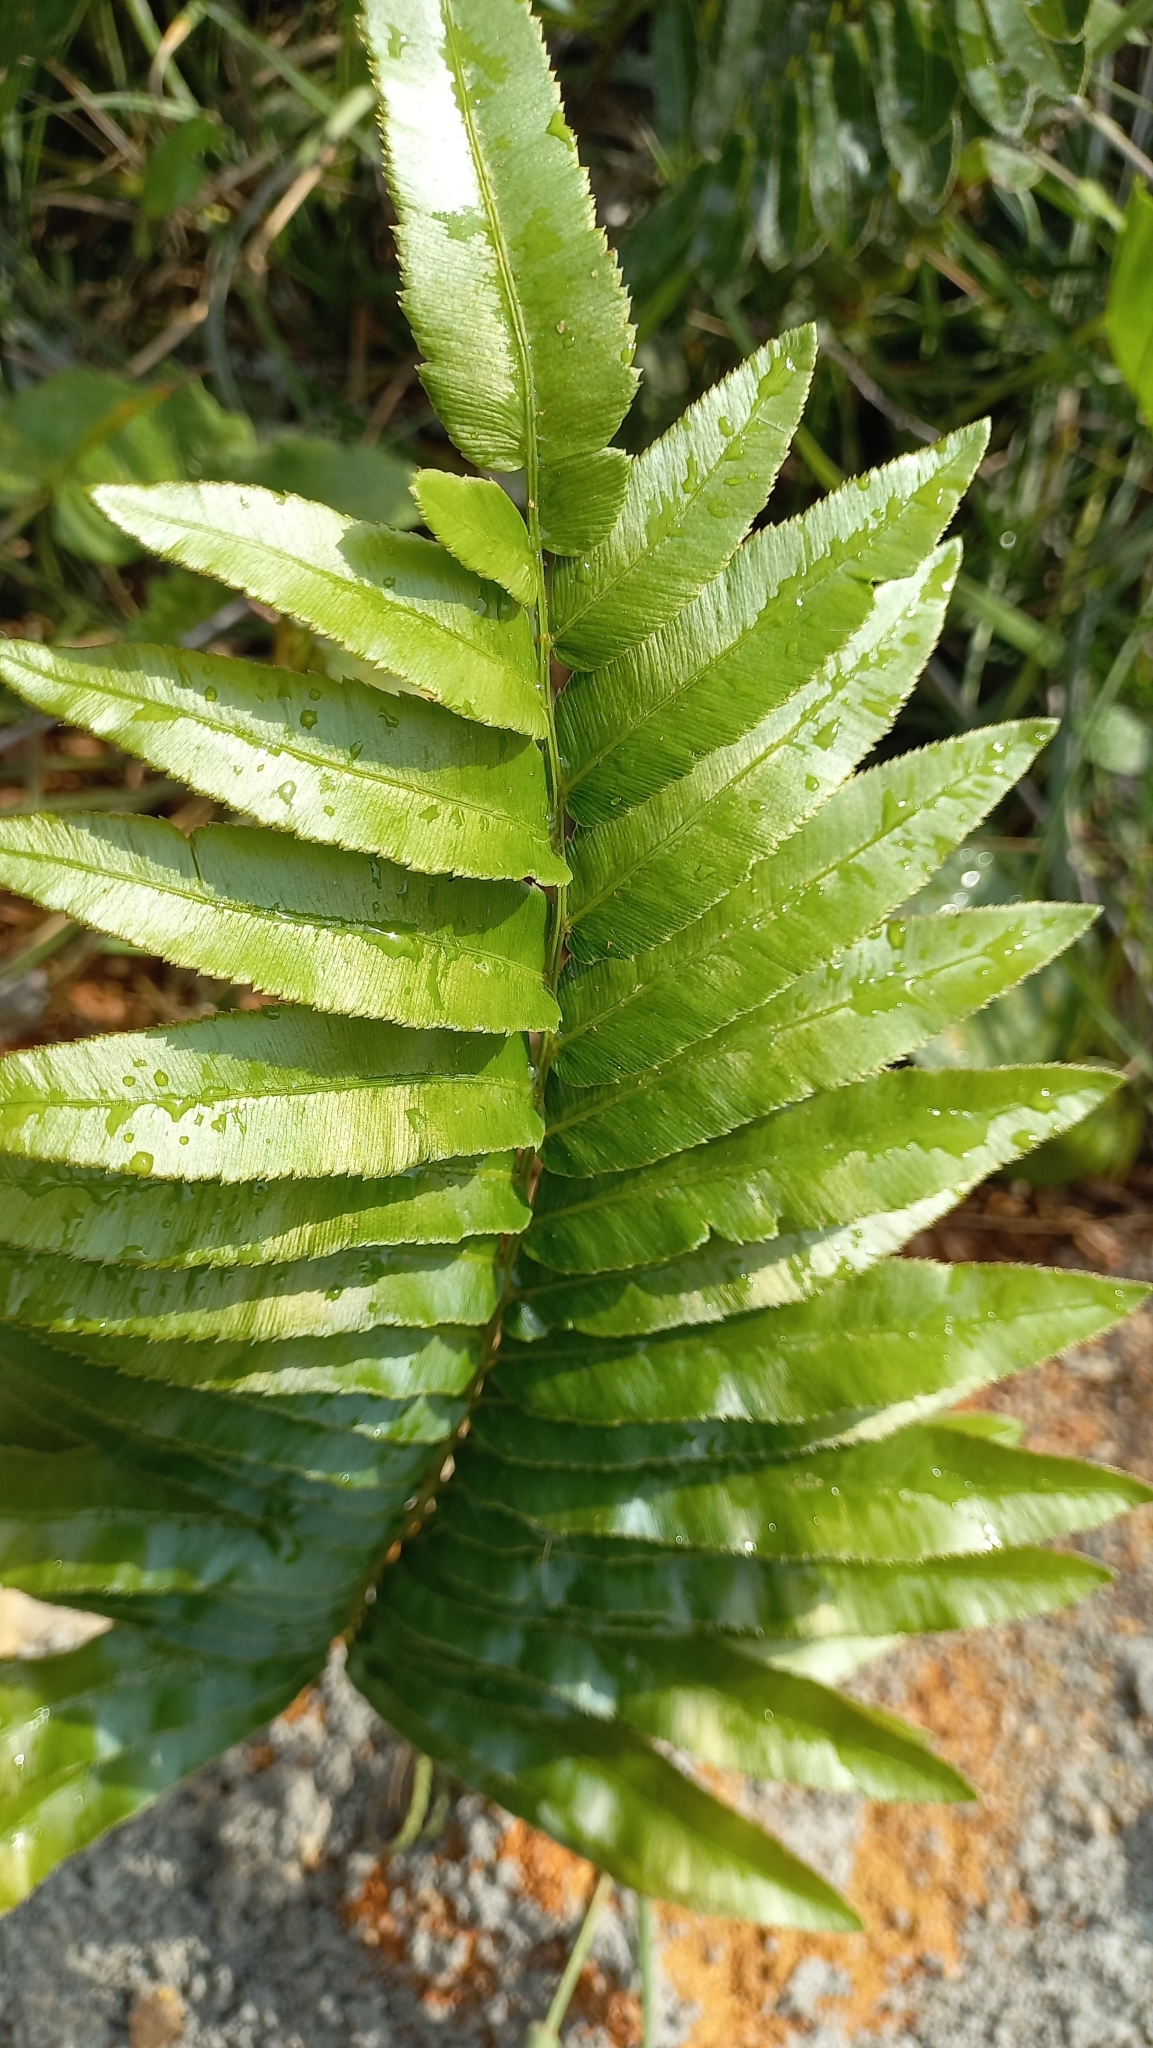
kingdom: Plantae
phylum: Tracheophyta
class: Polypodiopsida
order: Polypodiales
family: Blechnaceae
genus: Telmatoblechnum
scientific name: Telmatoblechnum serrulatum
